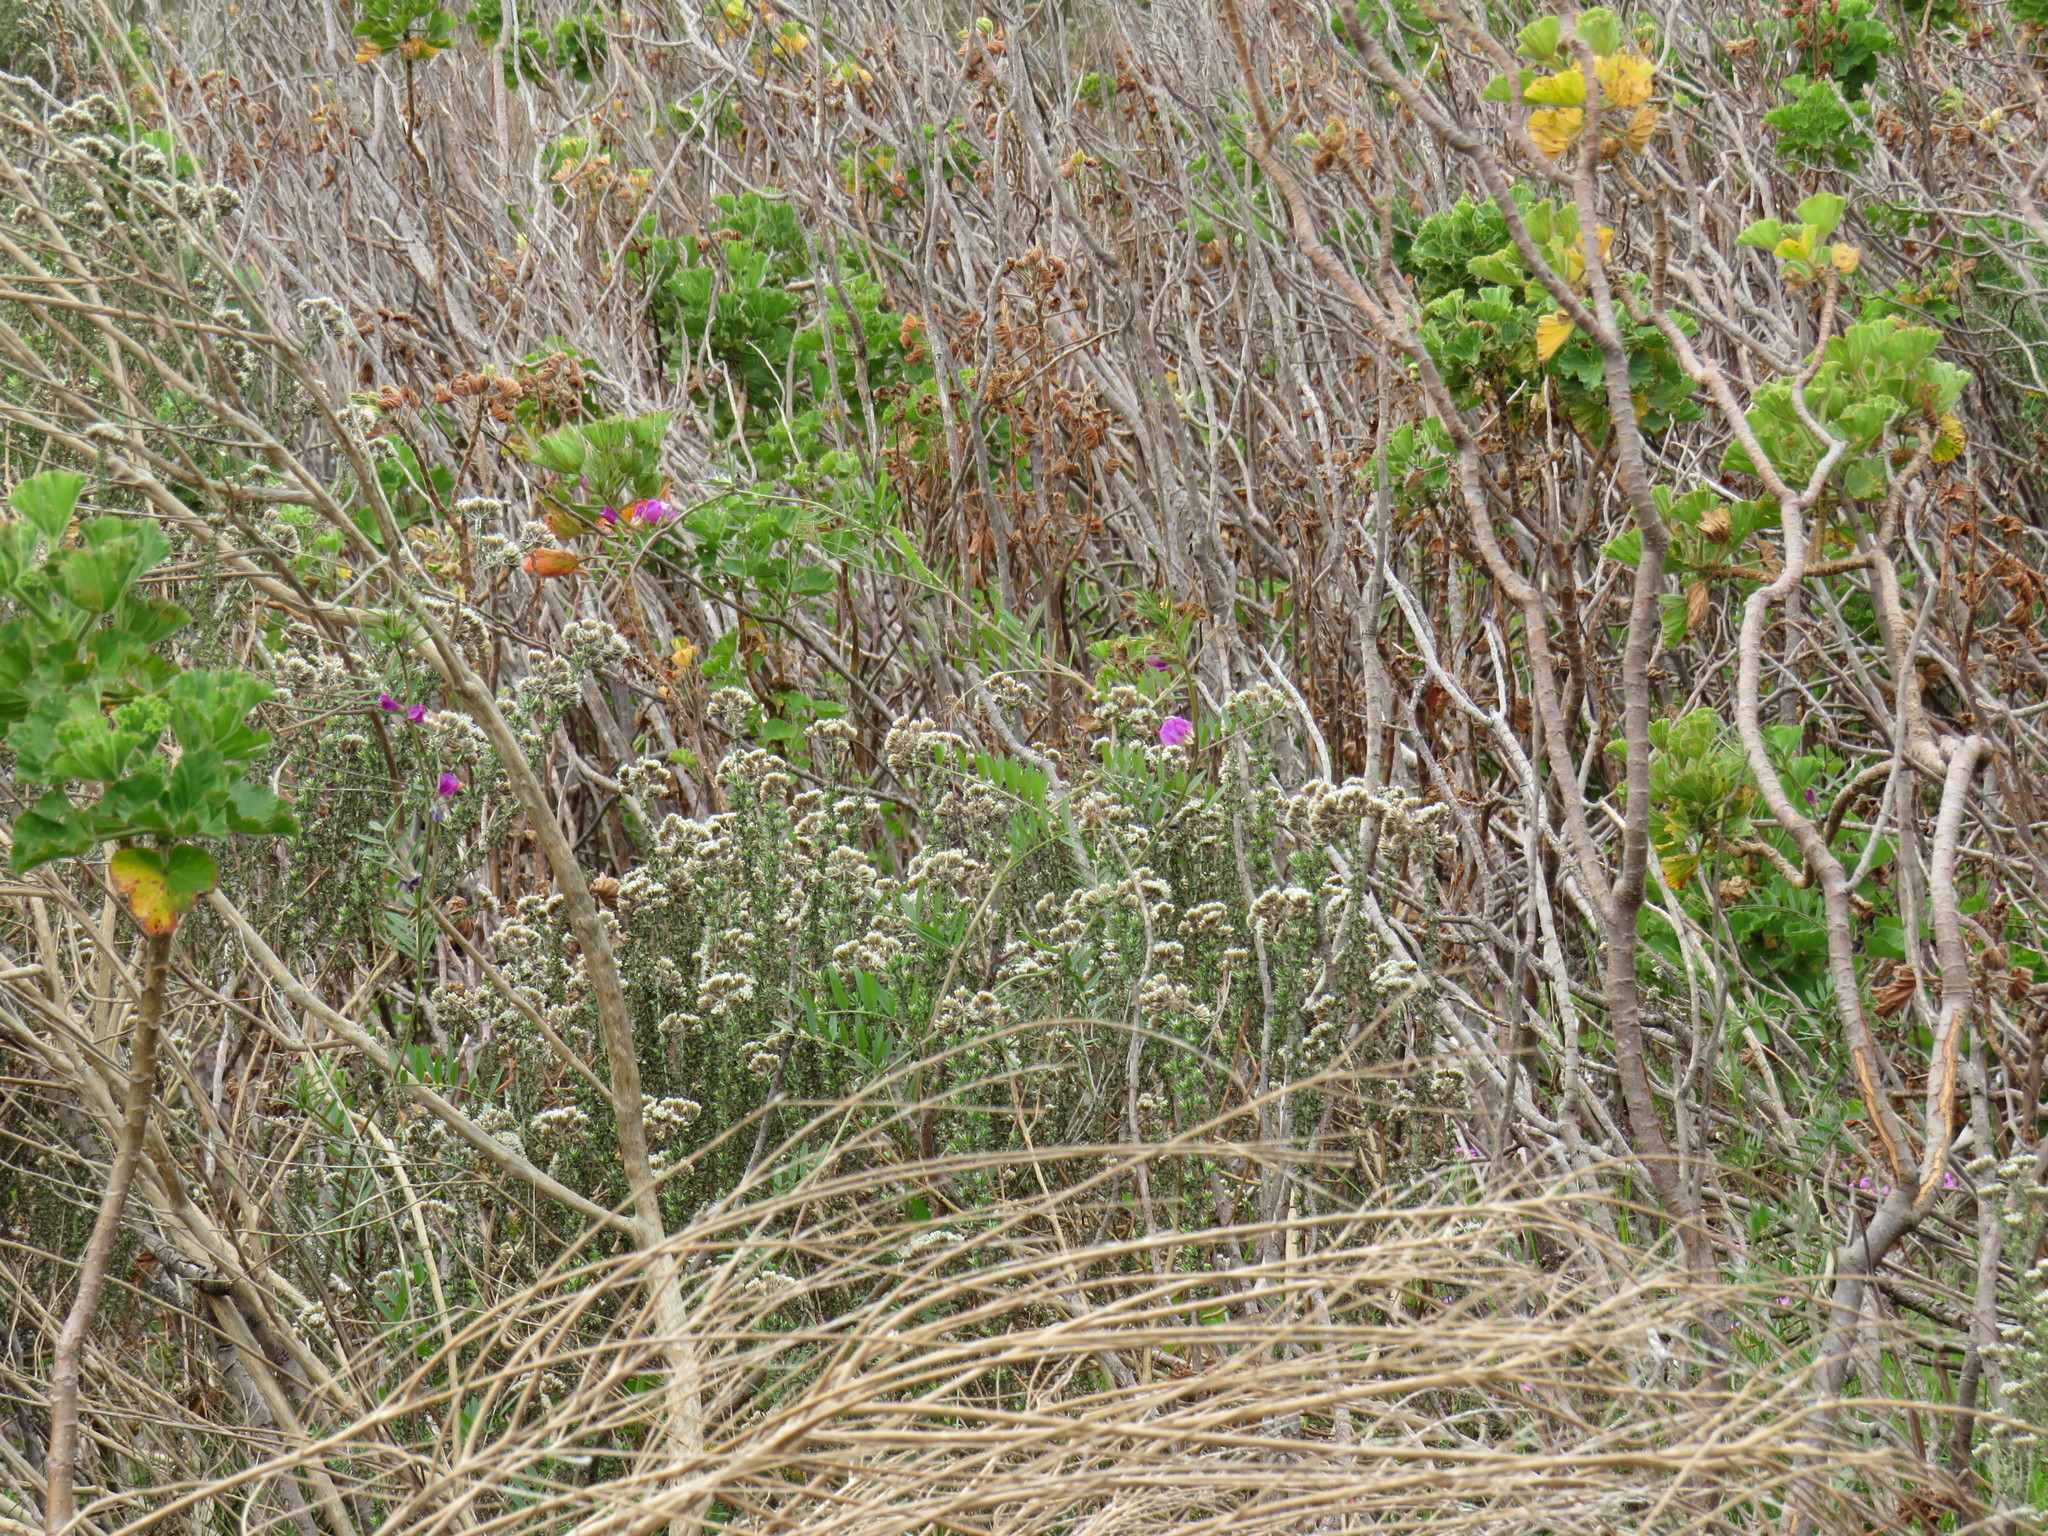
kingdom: Plantae
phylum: Tracheophyta
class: Magnoliopsida
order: Asterales
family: Asteraceae
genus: Metalasia
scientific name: Metalasia densa
